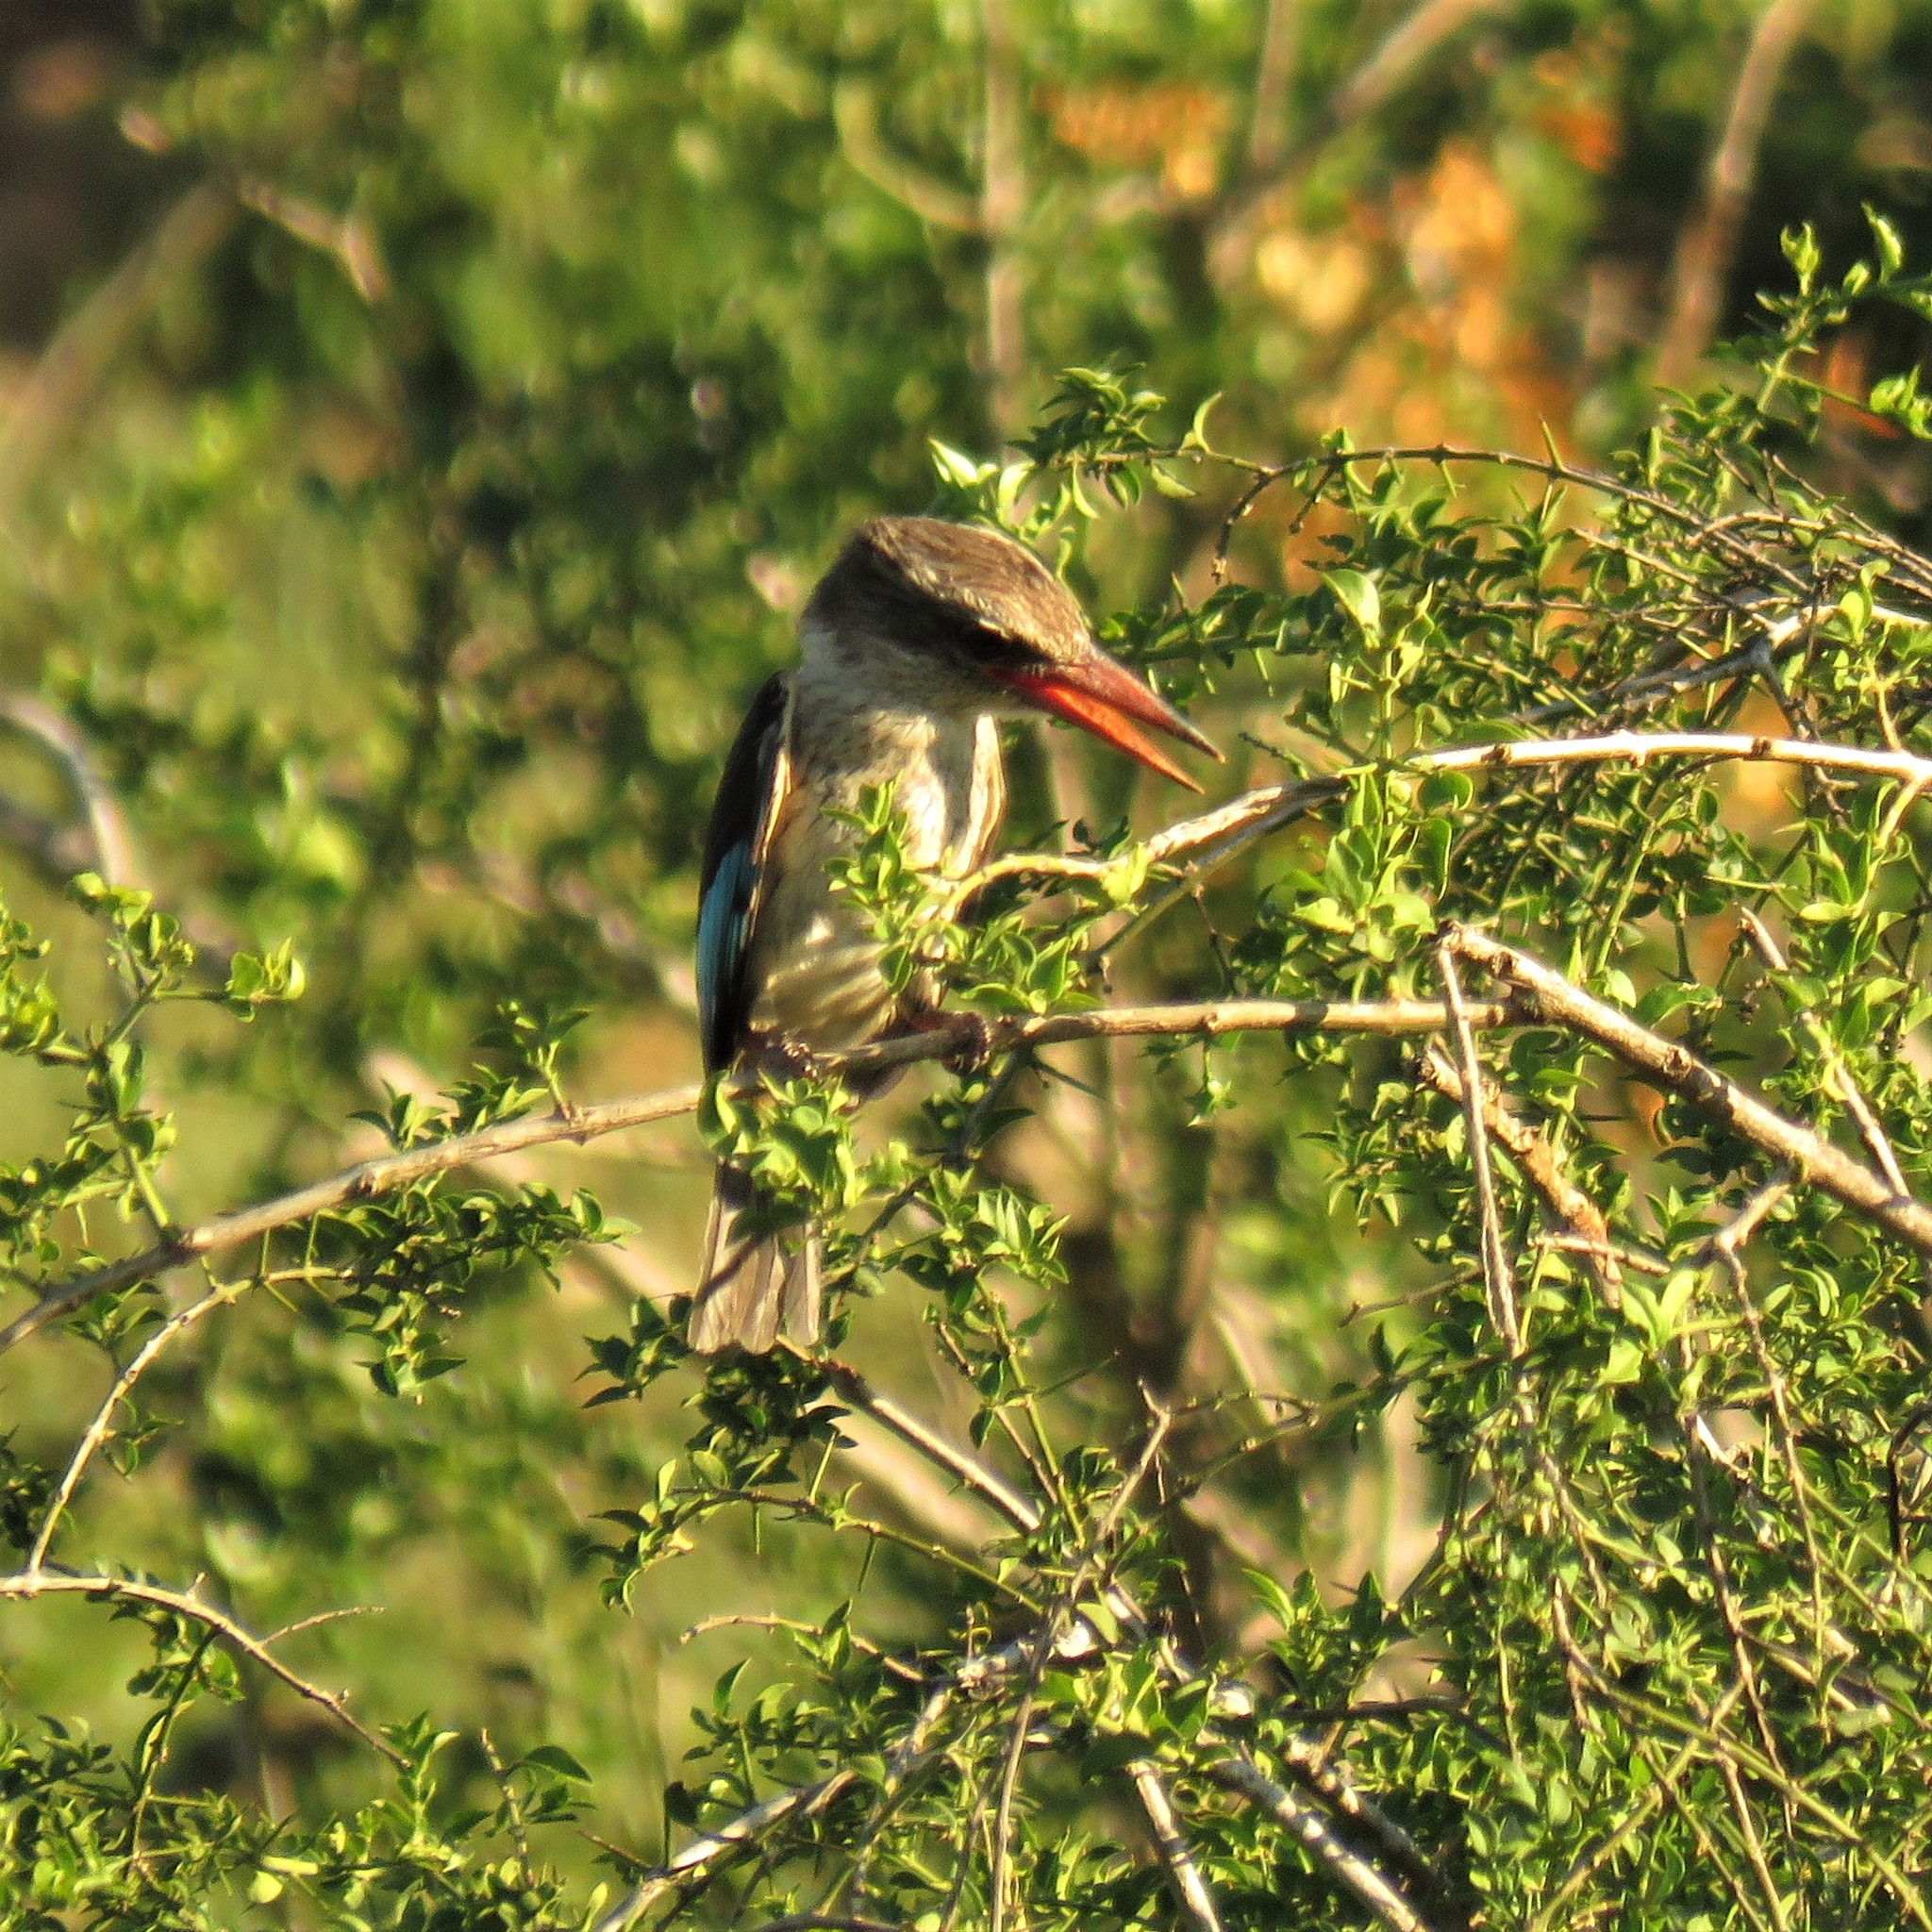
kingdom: Animalia
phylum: Chordata
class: Aves
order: Coraciiformes
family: Alcedinidae
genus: Halcyon
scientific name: Halcyon albiventris
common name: Brown-hooded kingfisher
